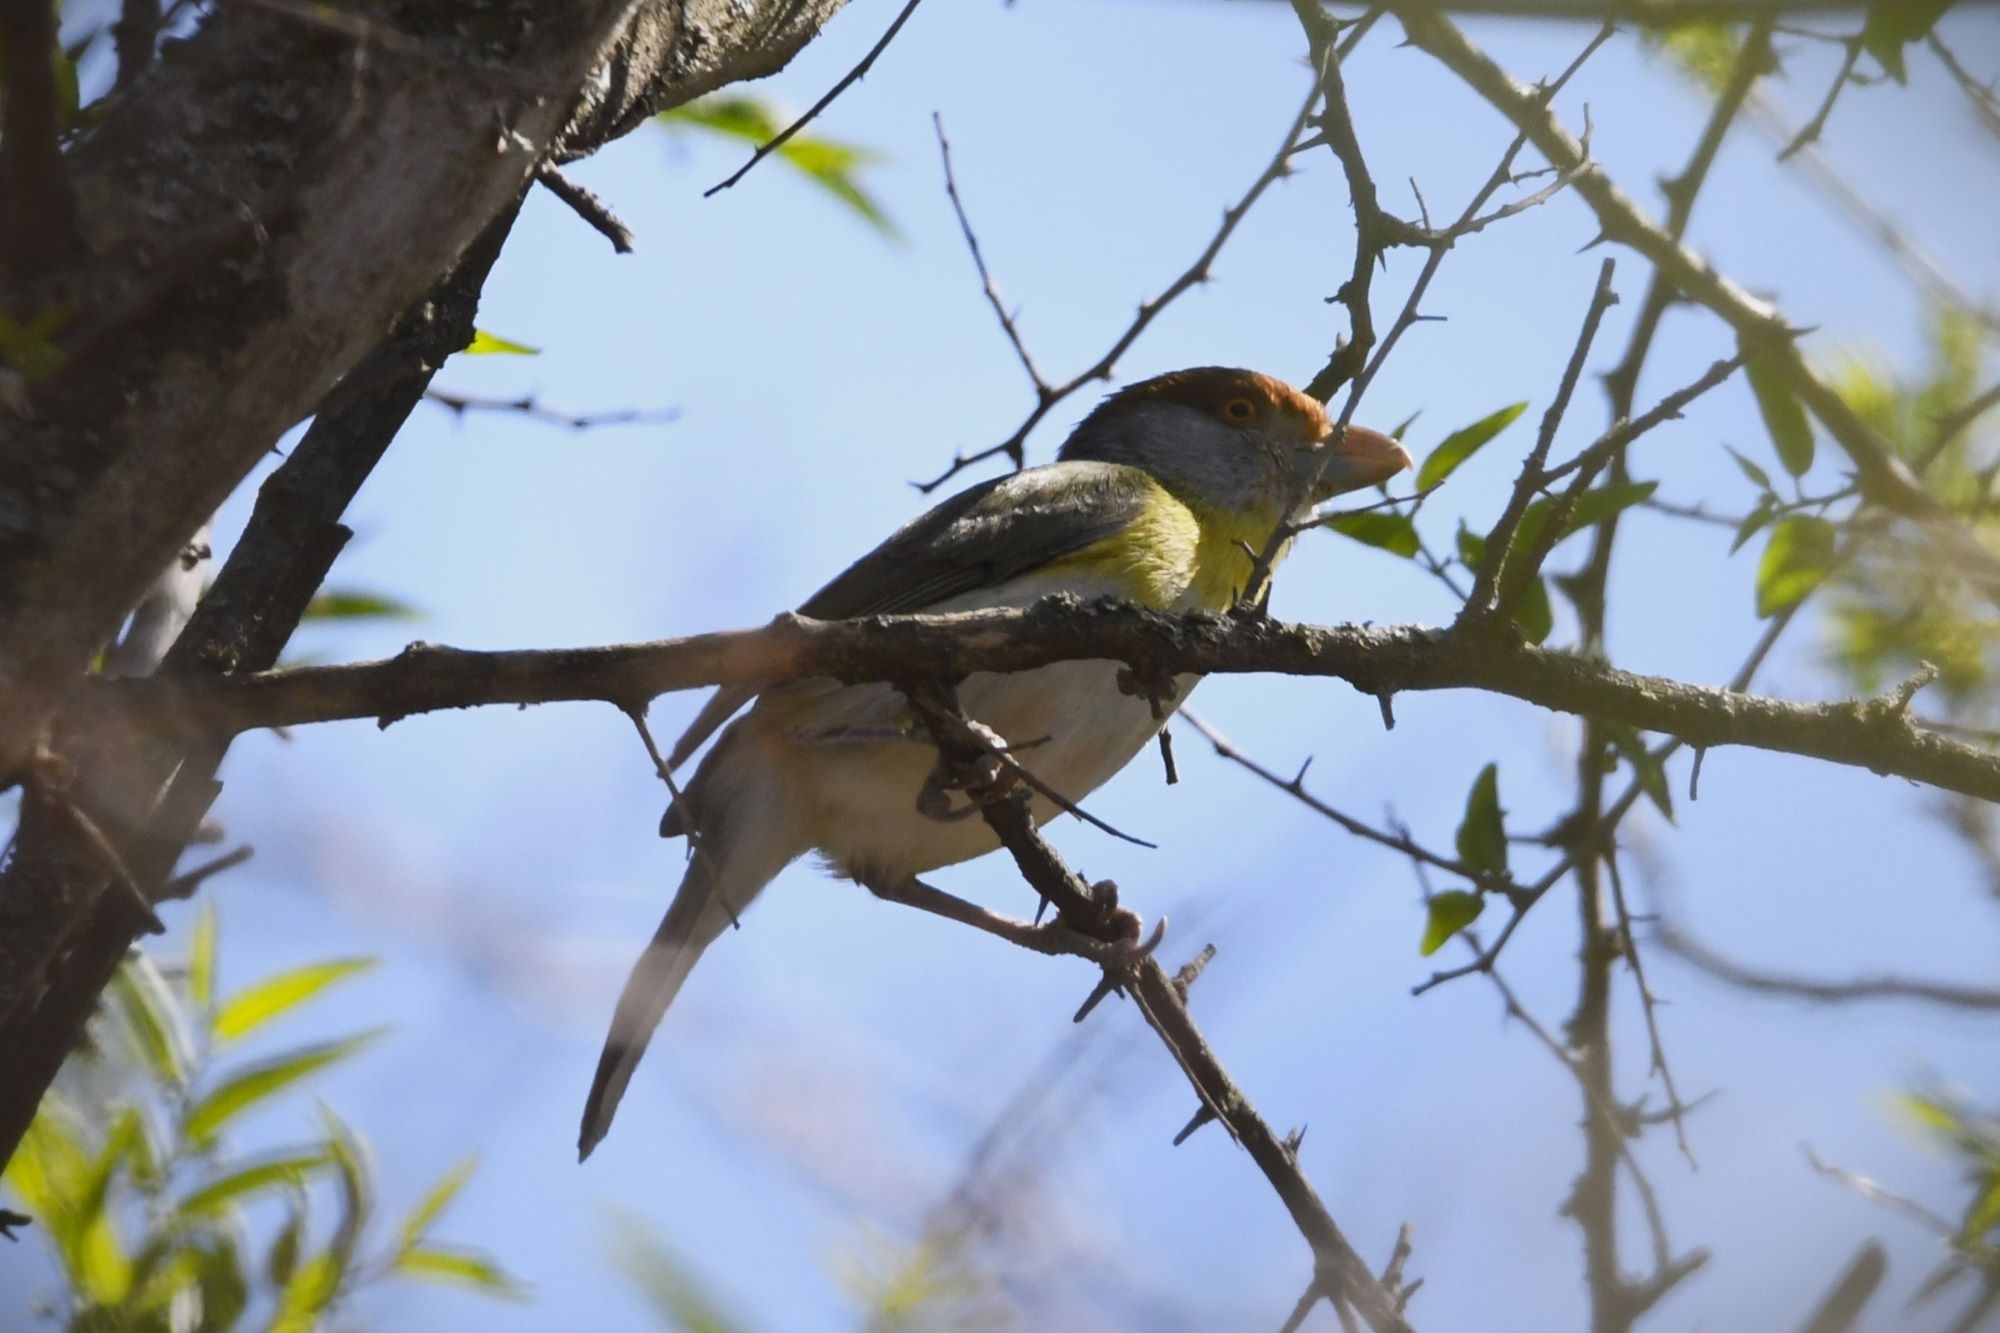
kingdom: Animalia
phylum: Chordata
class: Aves
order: Passeriformes
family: Vireonidae
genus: Cyclarhis
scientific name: Cyclarhis gujanensis
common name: Rufous-browed peppershrike
